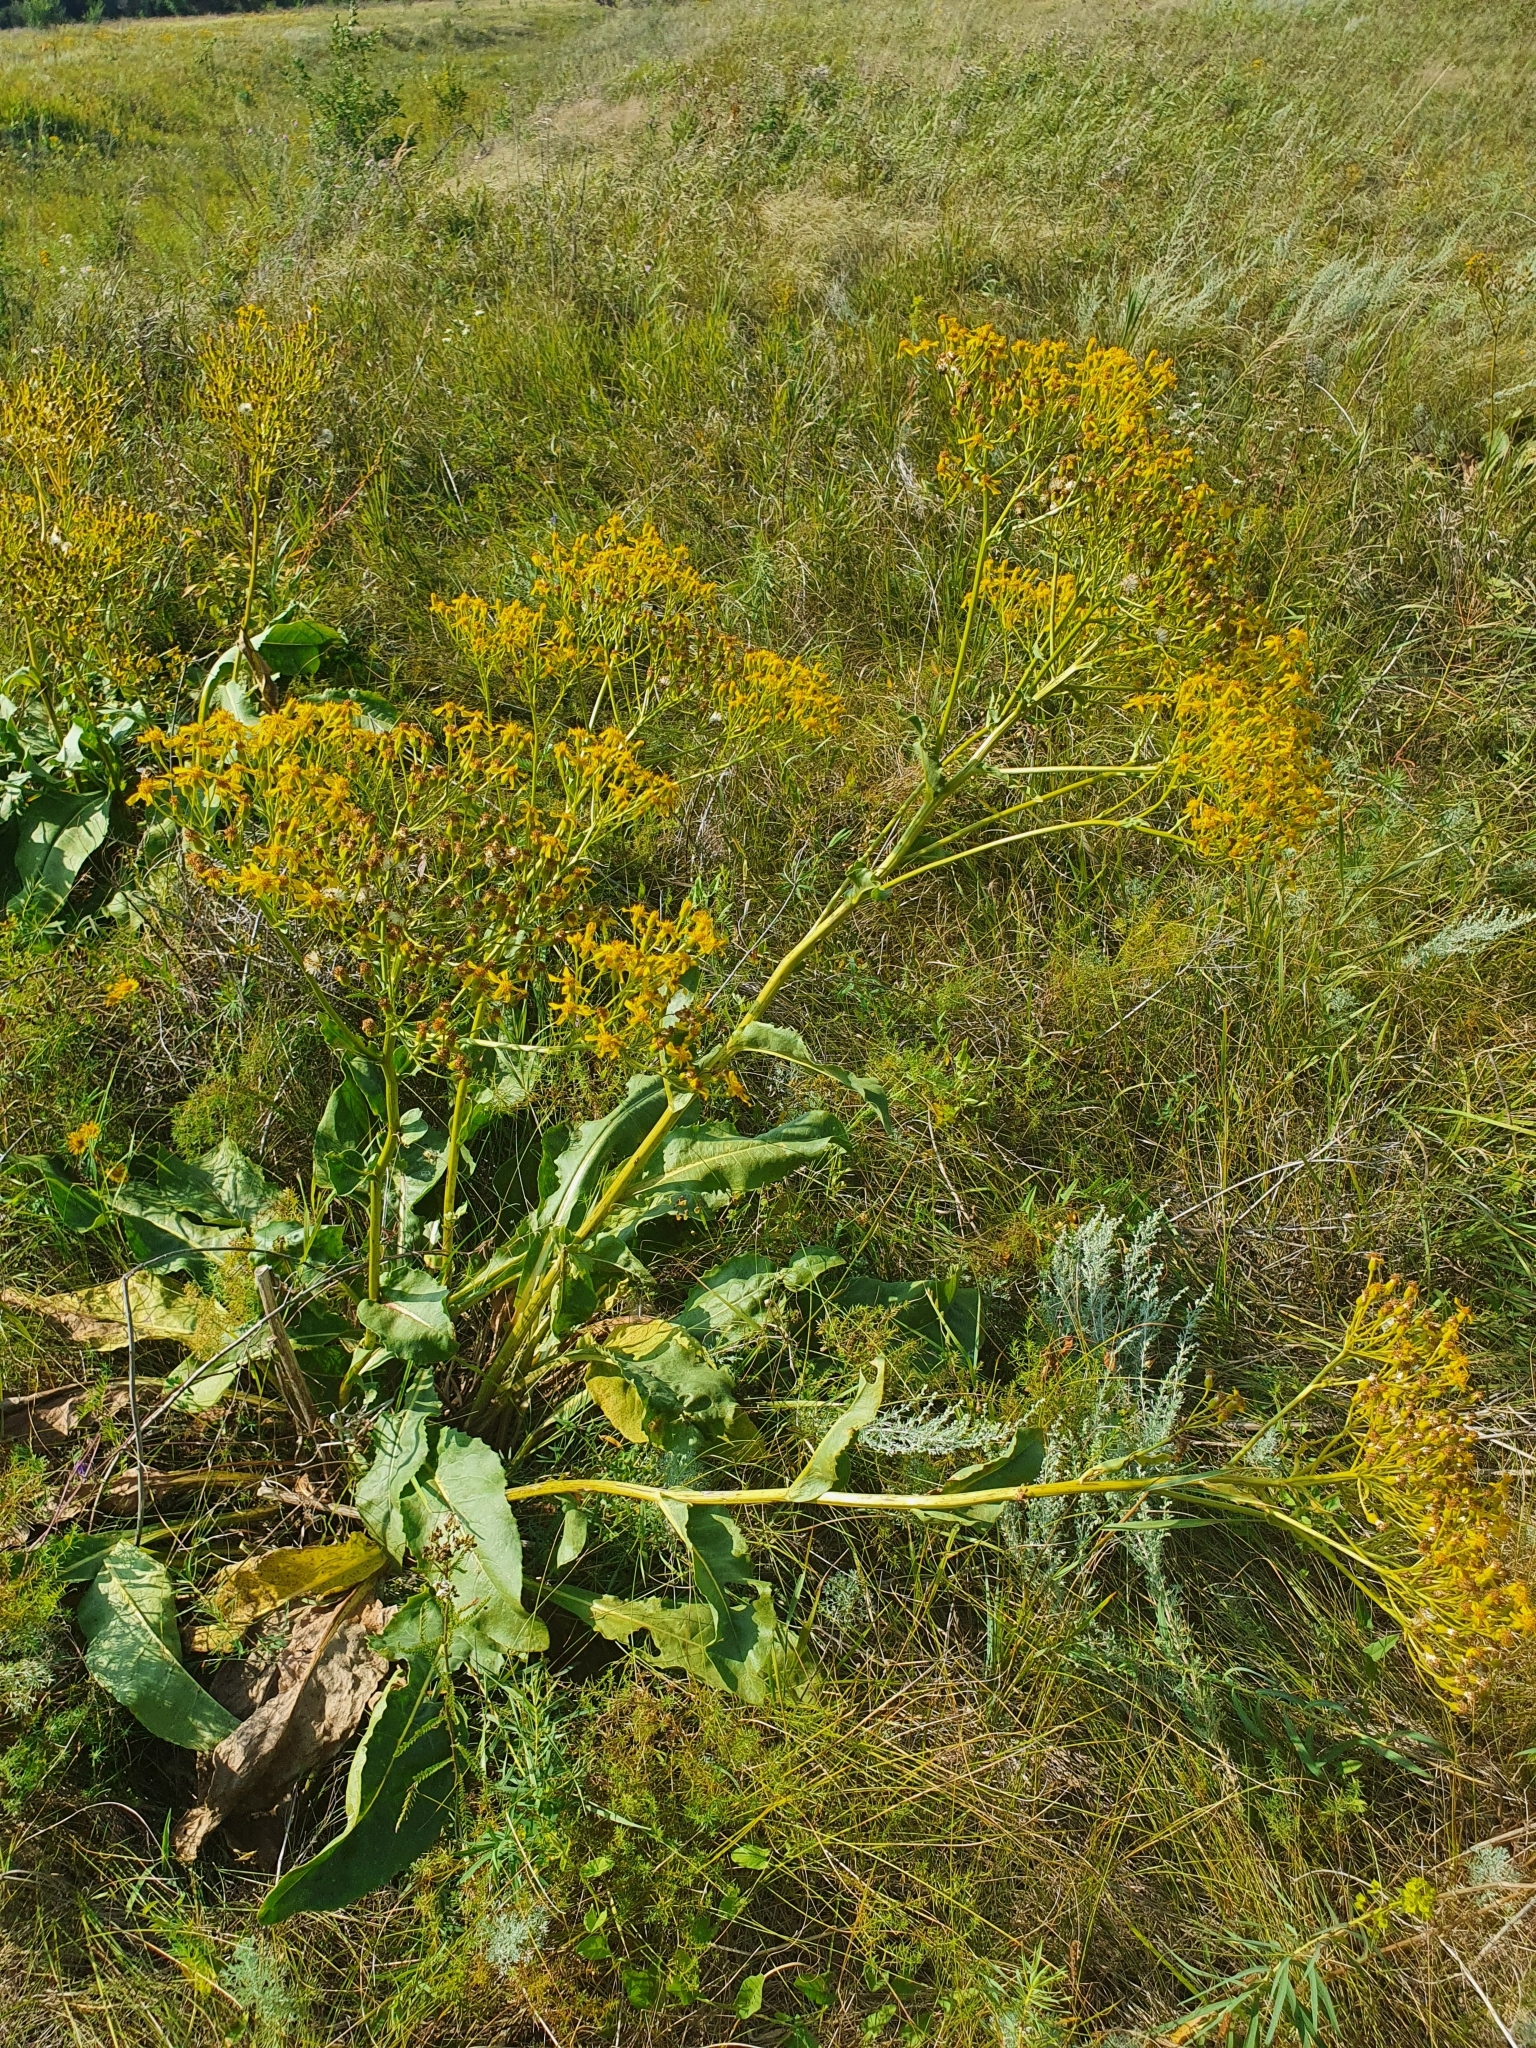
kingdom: Plantae
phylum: Tracheophyta
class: Magnoliopsida
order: Asterales
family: Asteraceae
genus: Senecio
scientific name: Senecio doria
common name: Golden ragwort
